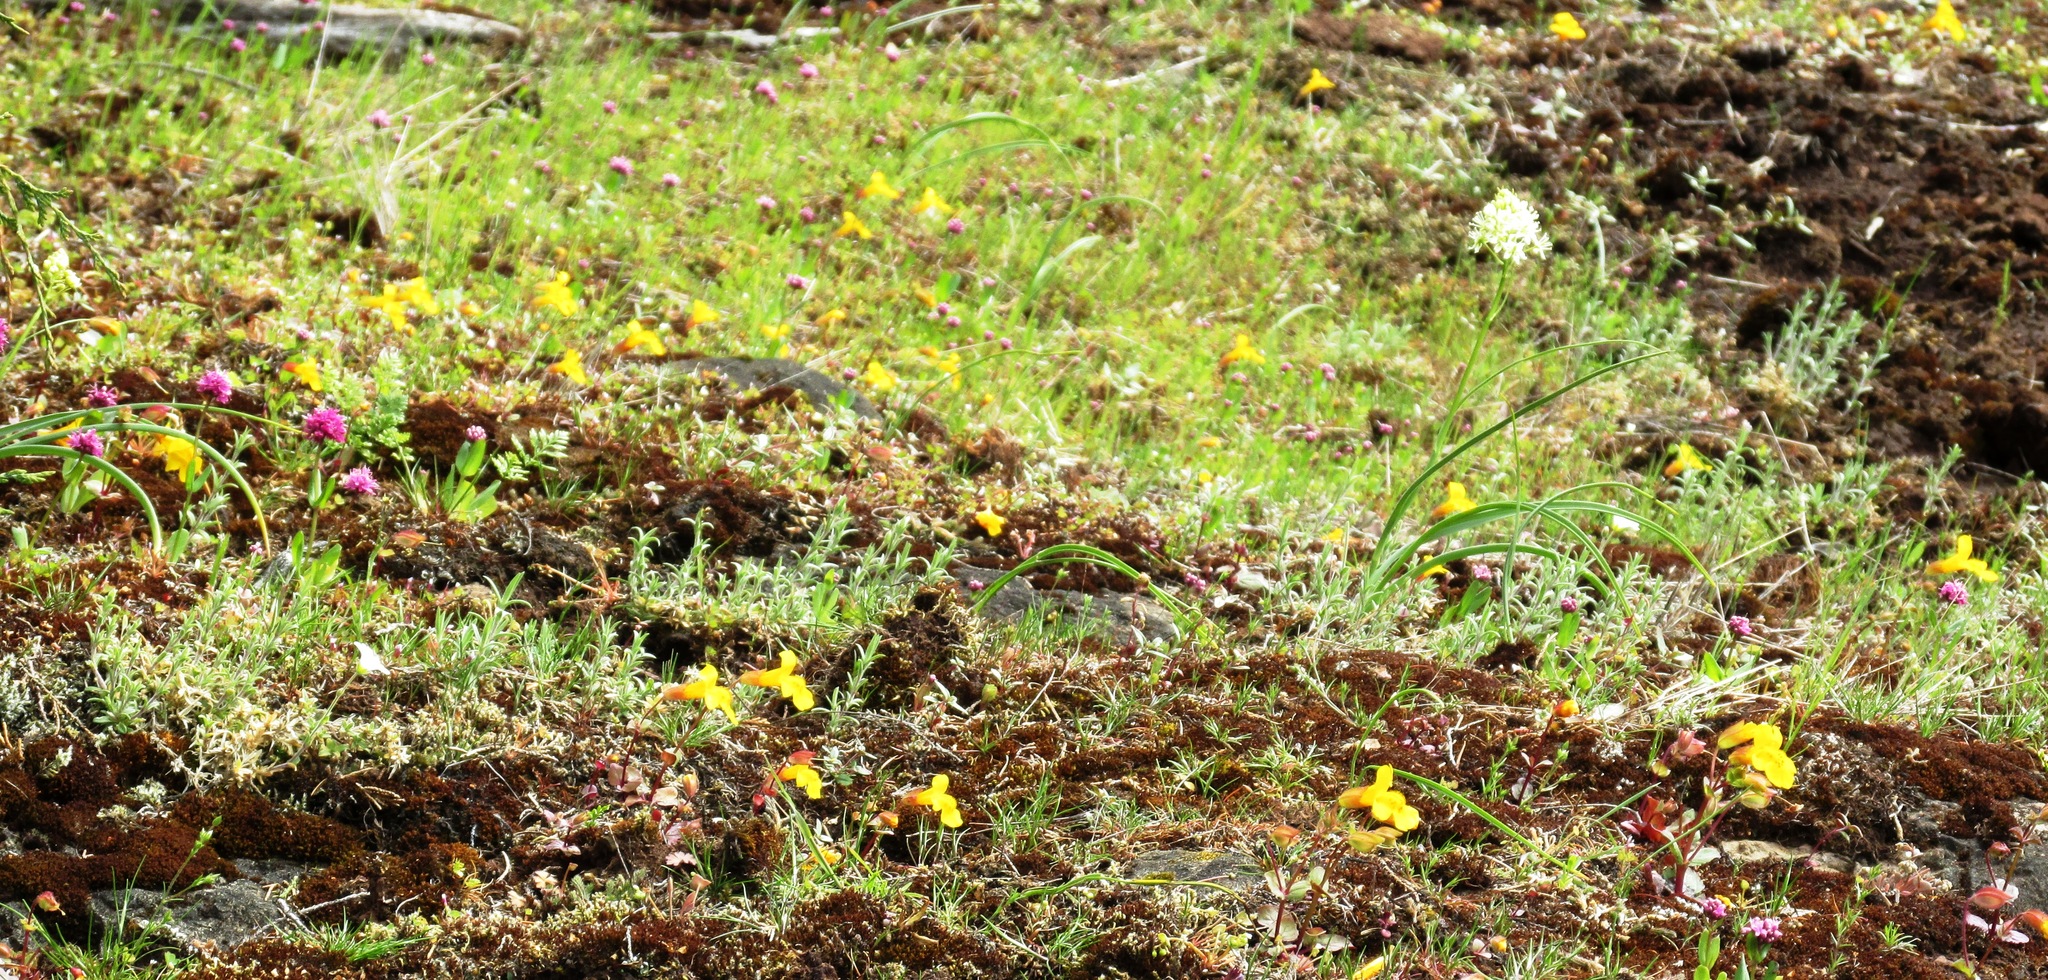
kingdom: Plantae
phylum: Tracheophyta
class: Magnoliopsida
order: Lamiales
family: Phrymaceae
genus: Erythranthe
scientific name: Erythranthe microphylla
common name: Bentham's monkeyflower
